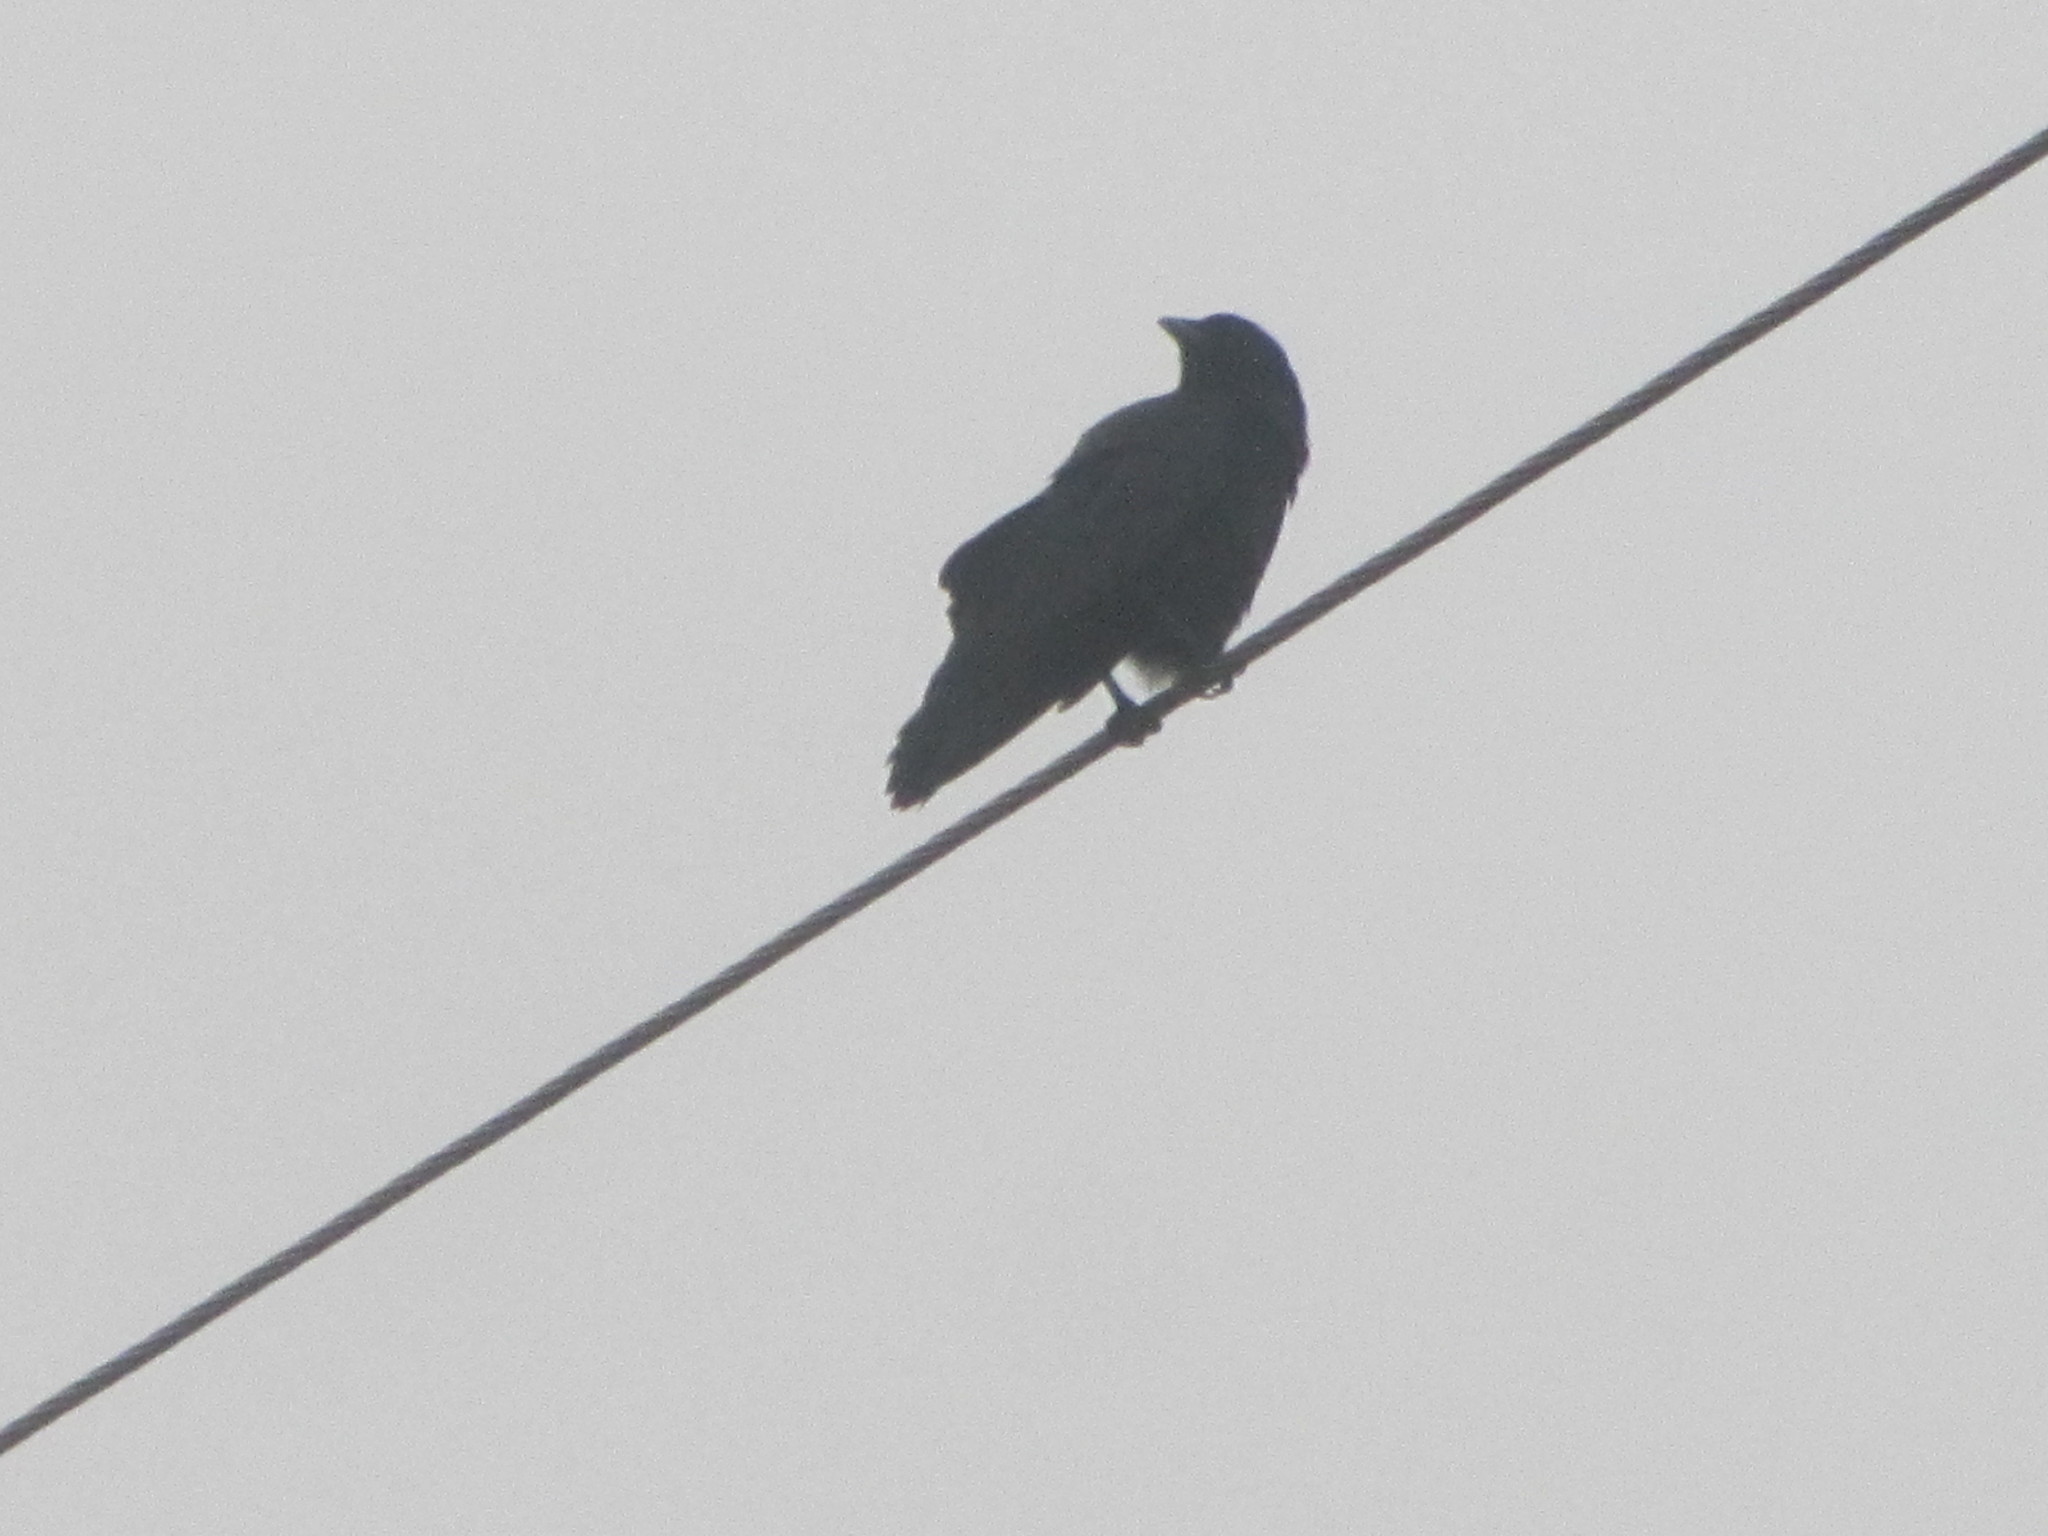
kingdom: Animalia
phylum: Chordata
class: Aves
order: Passeriformes
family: Corvidae
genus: Corvus
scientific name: Corvus brachyrhynchos
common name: American crow
